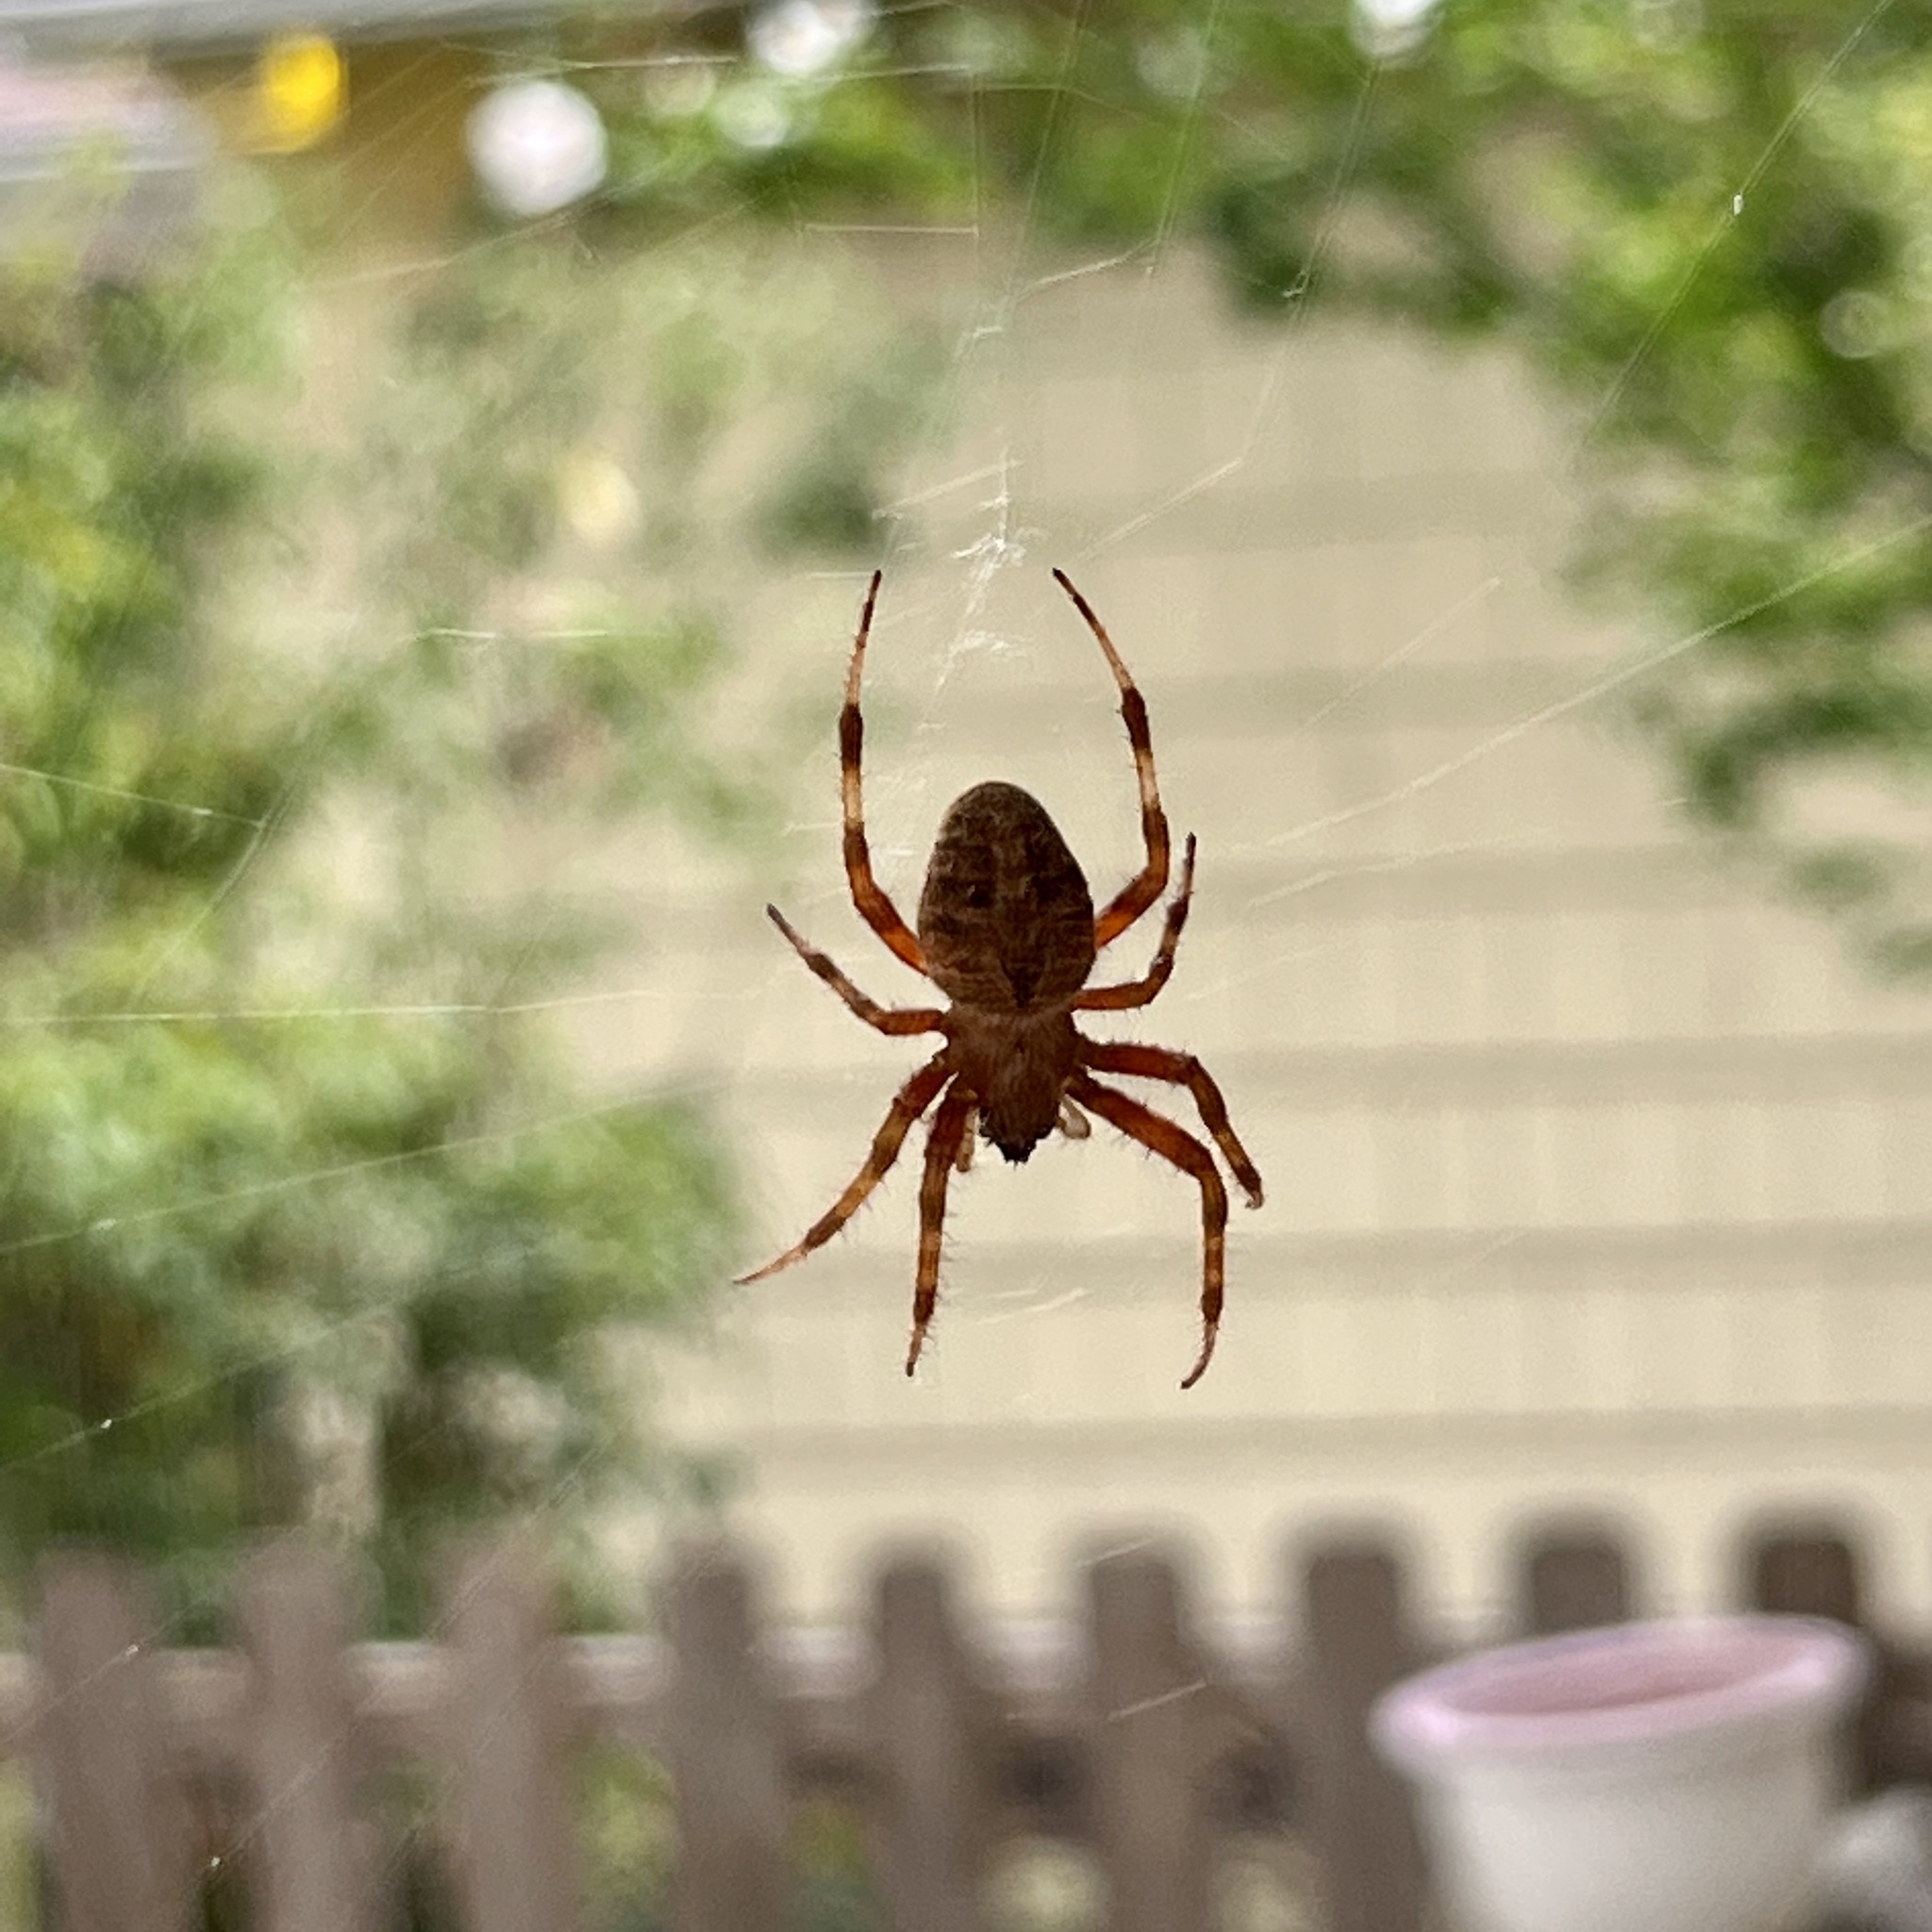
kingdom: Animalia
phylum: Arthropoda
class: Arachnida
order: Araneae
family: Araneidae
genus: Neoscona
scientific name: Neoscona crucifera
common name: Spotted orbweaver
